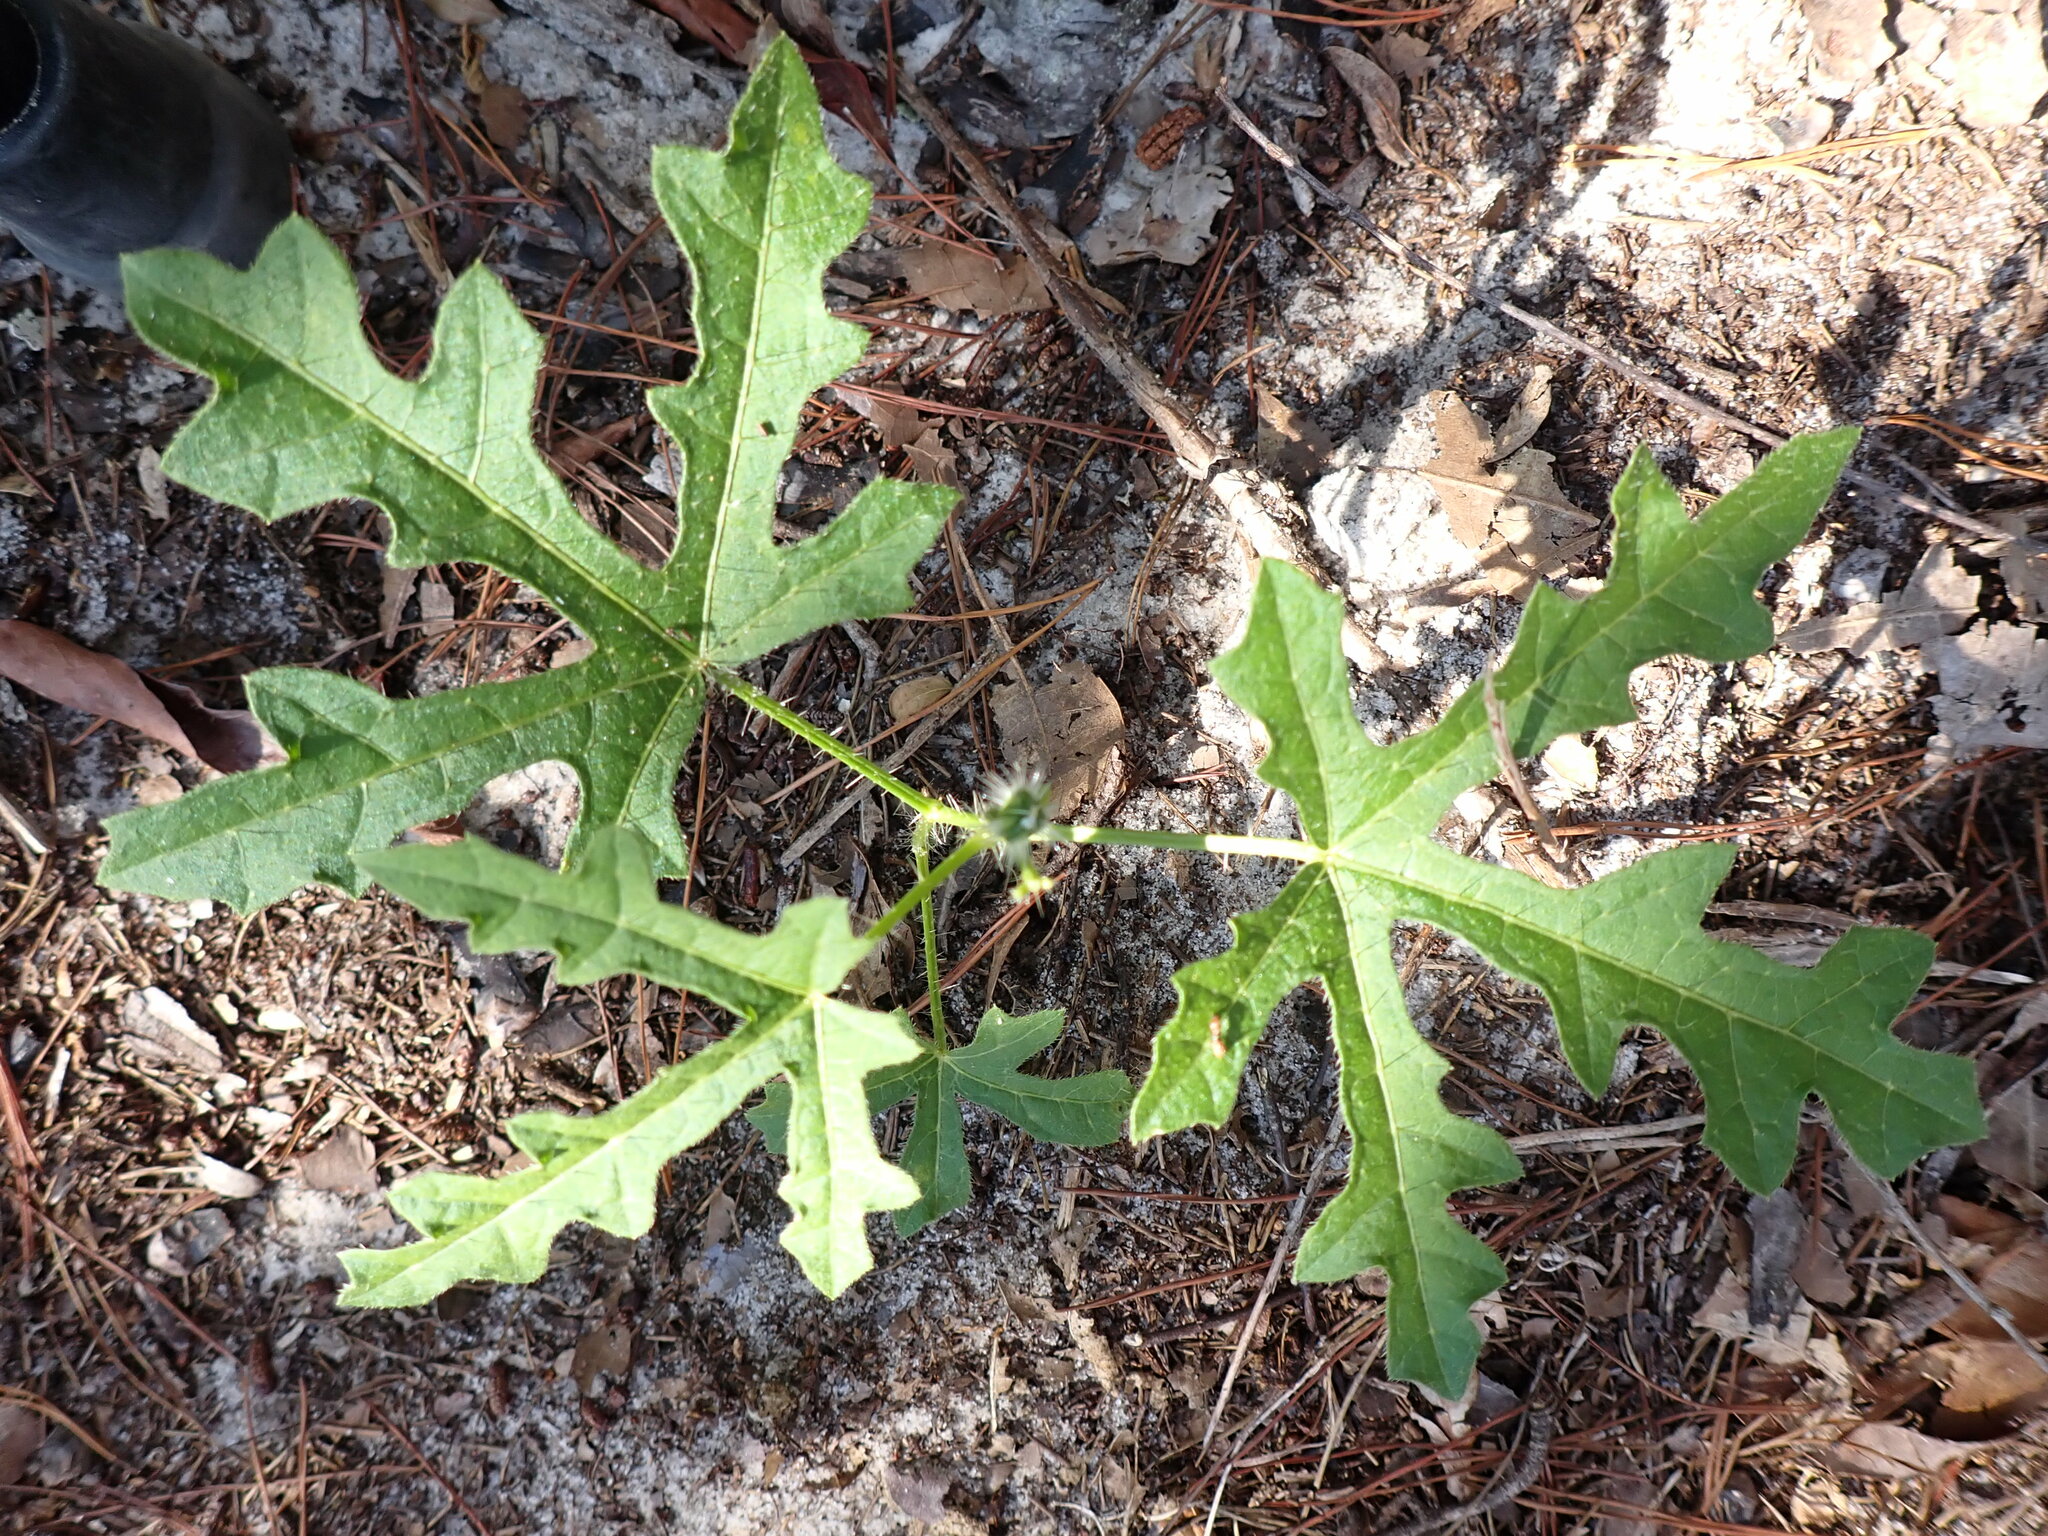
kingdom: Plantae
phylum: Tracheophyta
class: Magnoliopsida
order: Malpighiales
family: Euphorbiaceae
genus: Cnidoscolus
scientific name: Cnidoscolus stimulosus
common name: Bull-nettle
